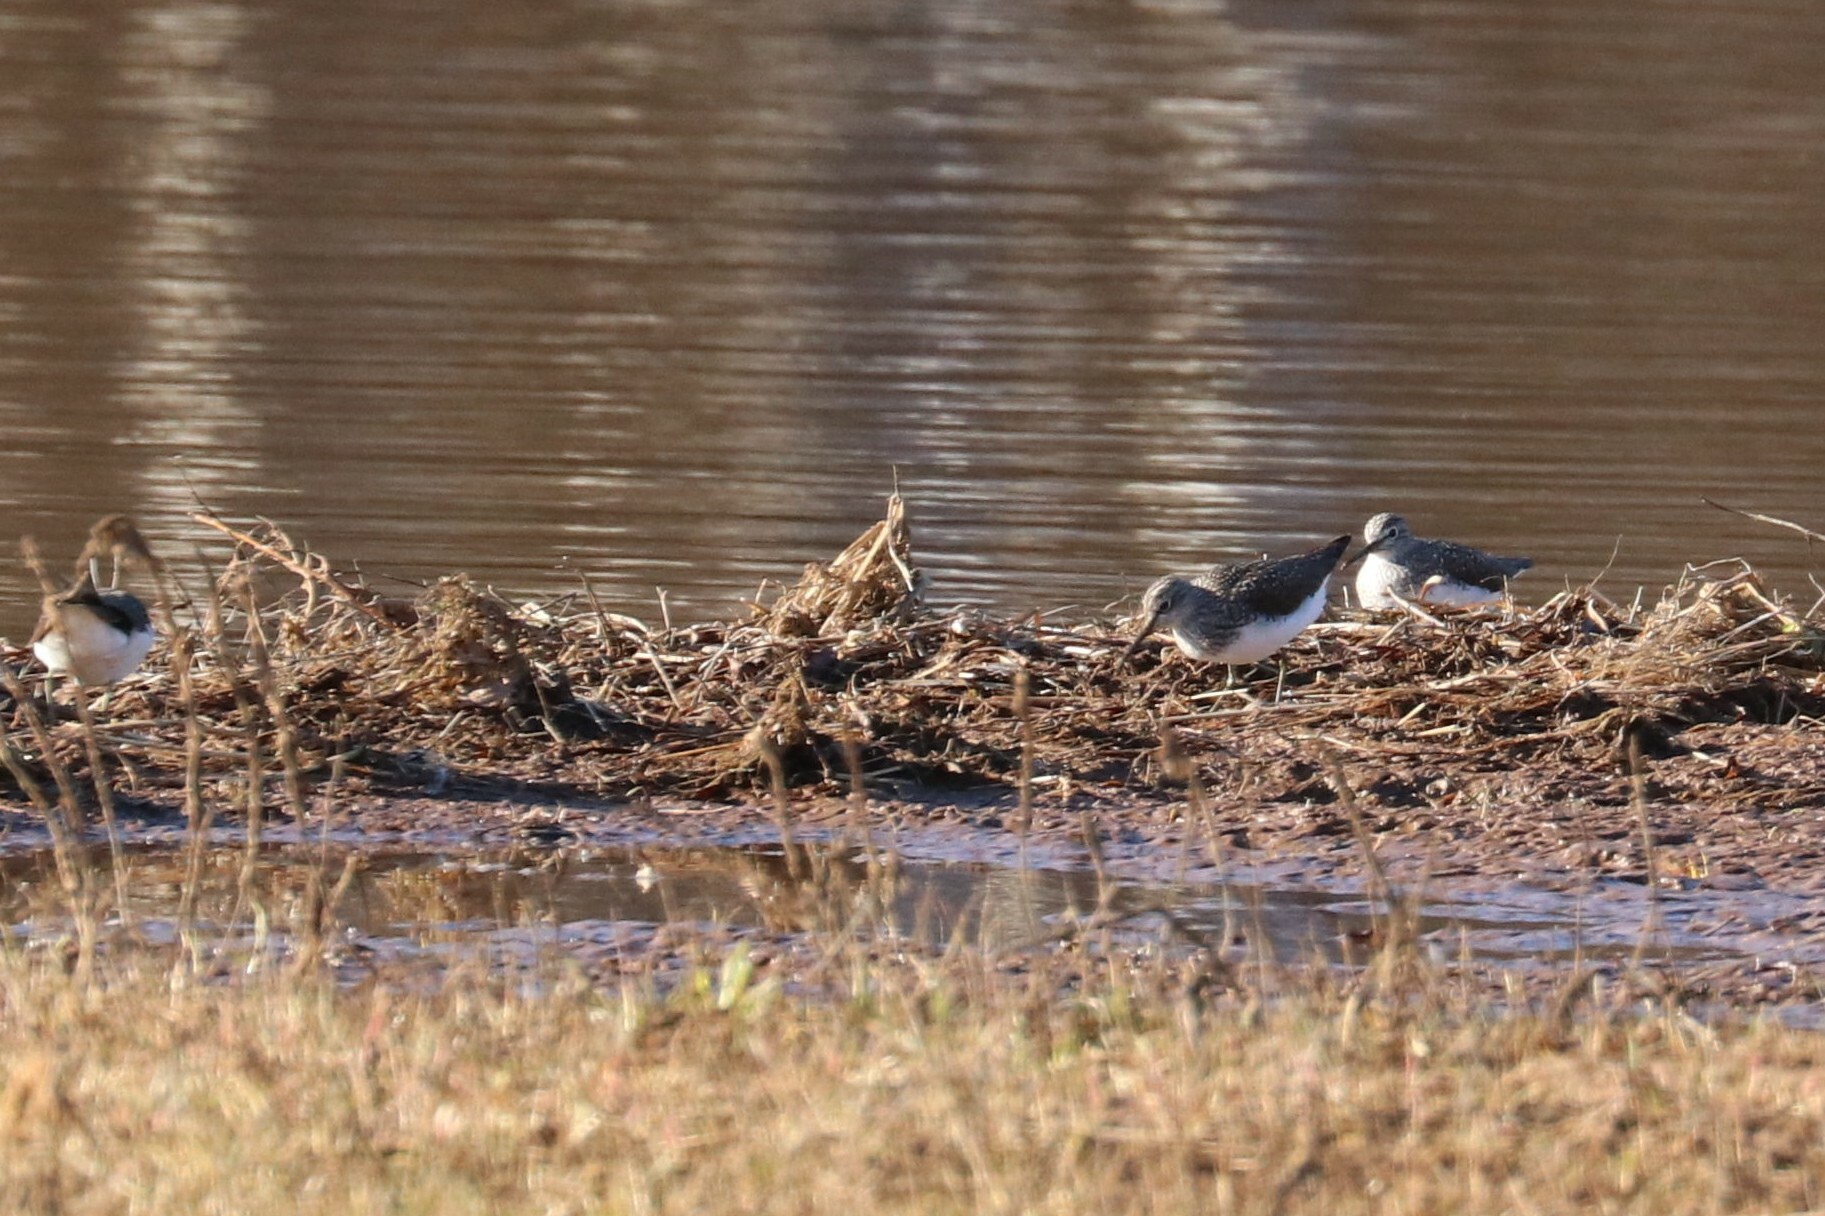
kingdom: Animalia
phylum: Chordata
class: Aves
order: Charadriiformes
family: Scolopacidae
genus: Tringa
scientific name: Tringa ochropus
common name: Green sandpiper
